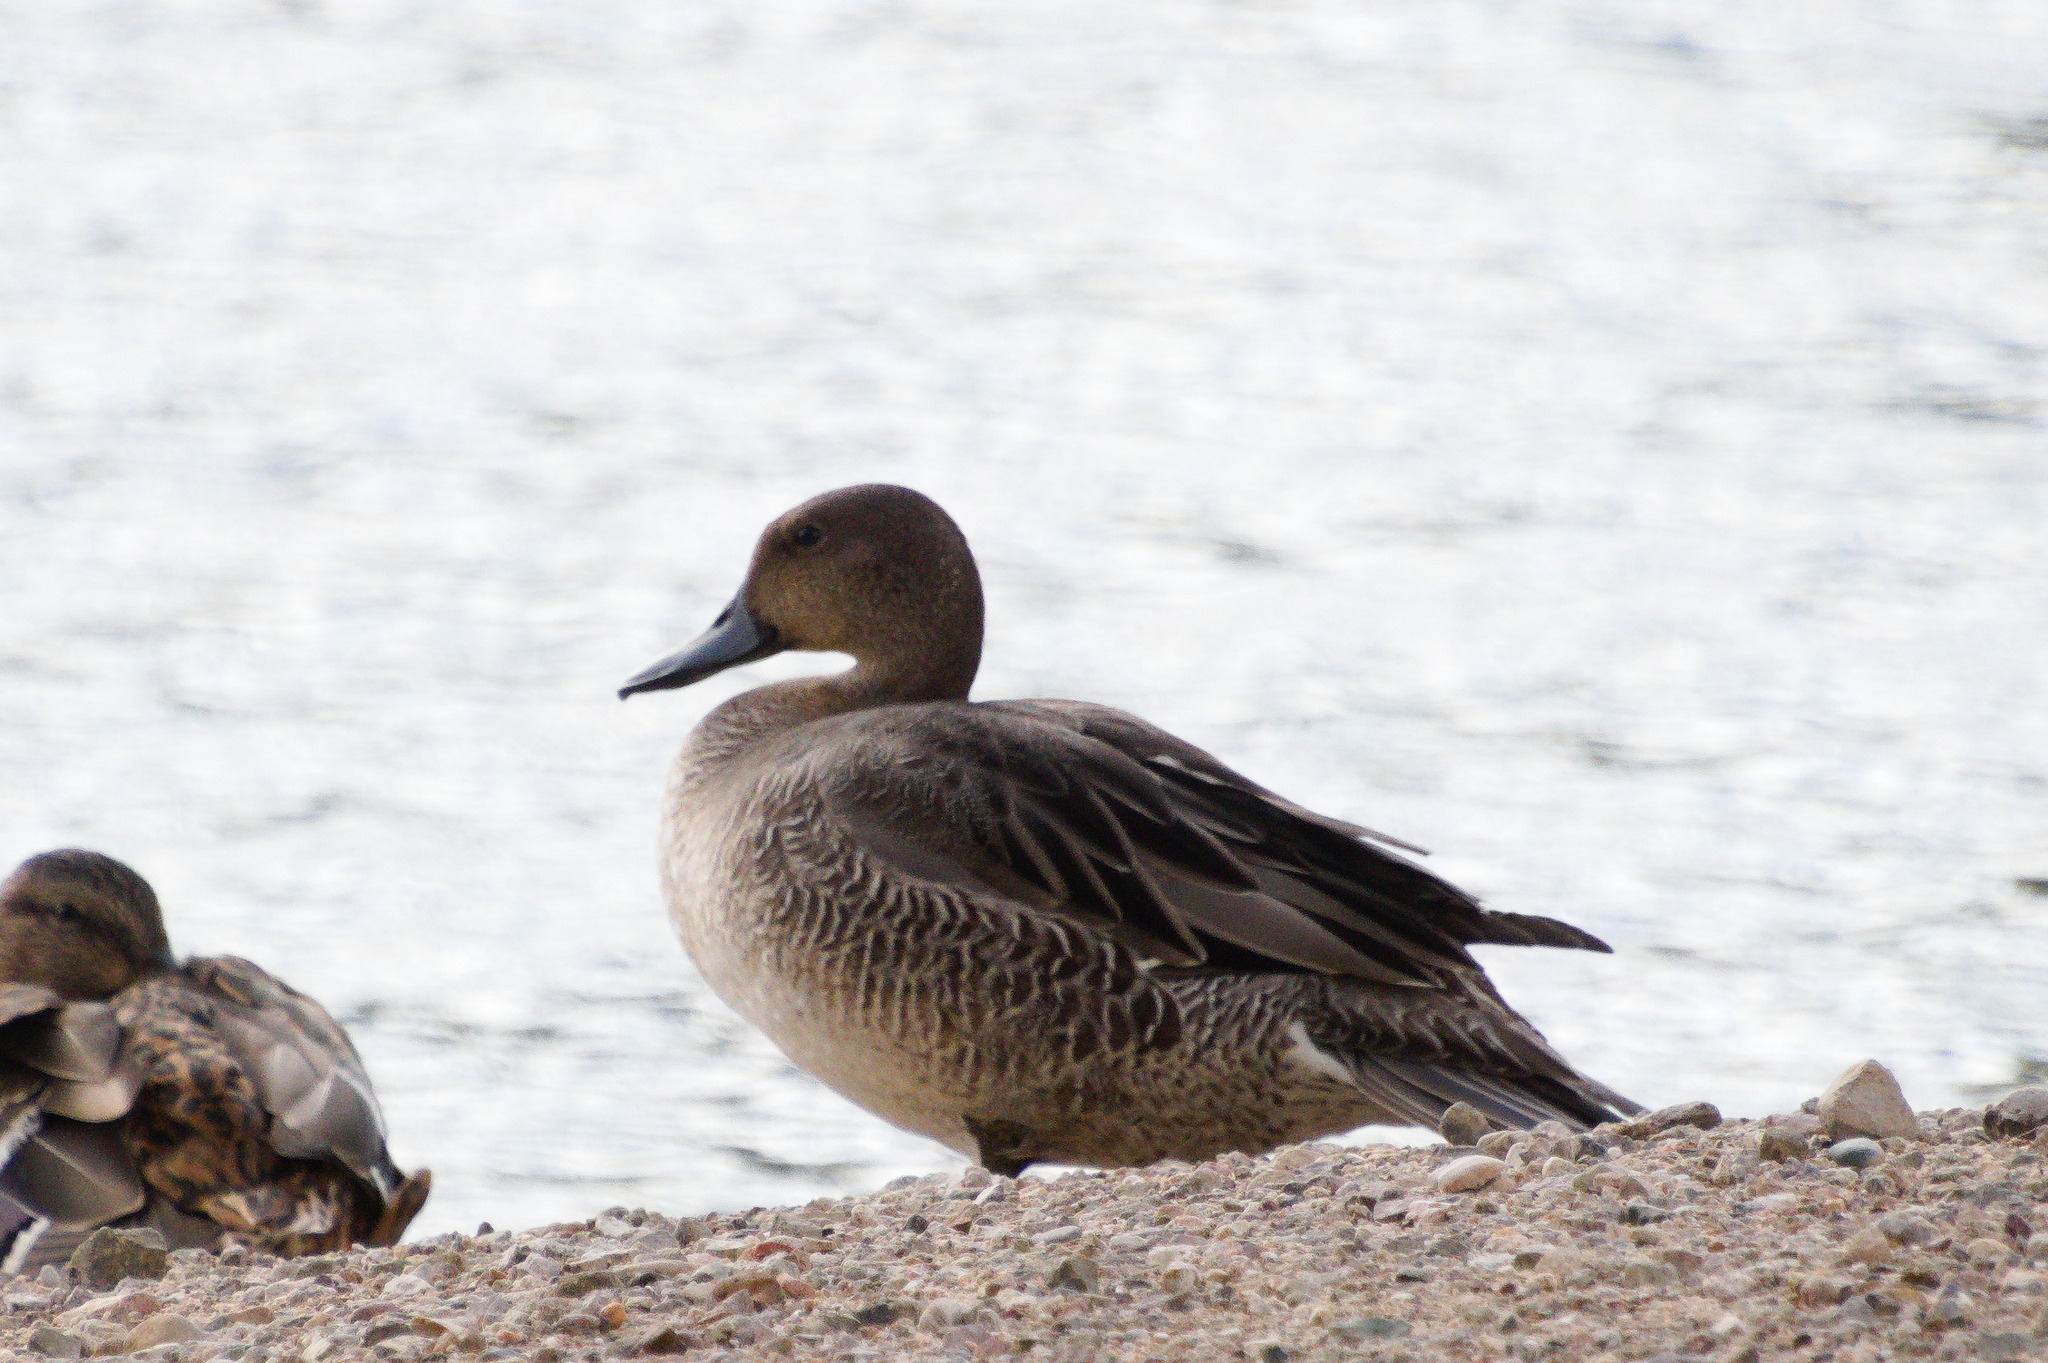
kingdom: Animalia
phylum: Chordata
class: Aves
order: Anseriformes
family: Anatidae
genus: Anas
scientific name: Anas acuta
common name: Northern pintail
